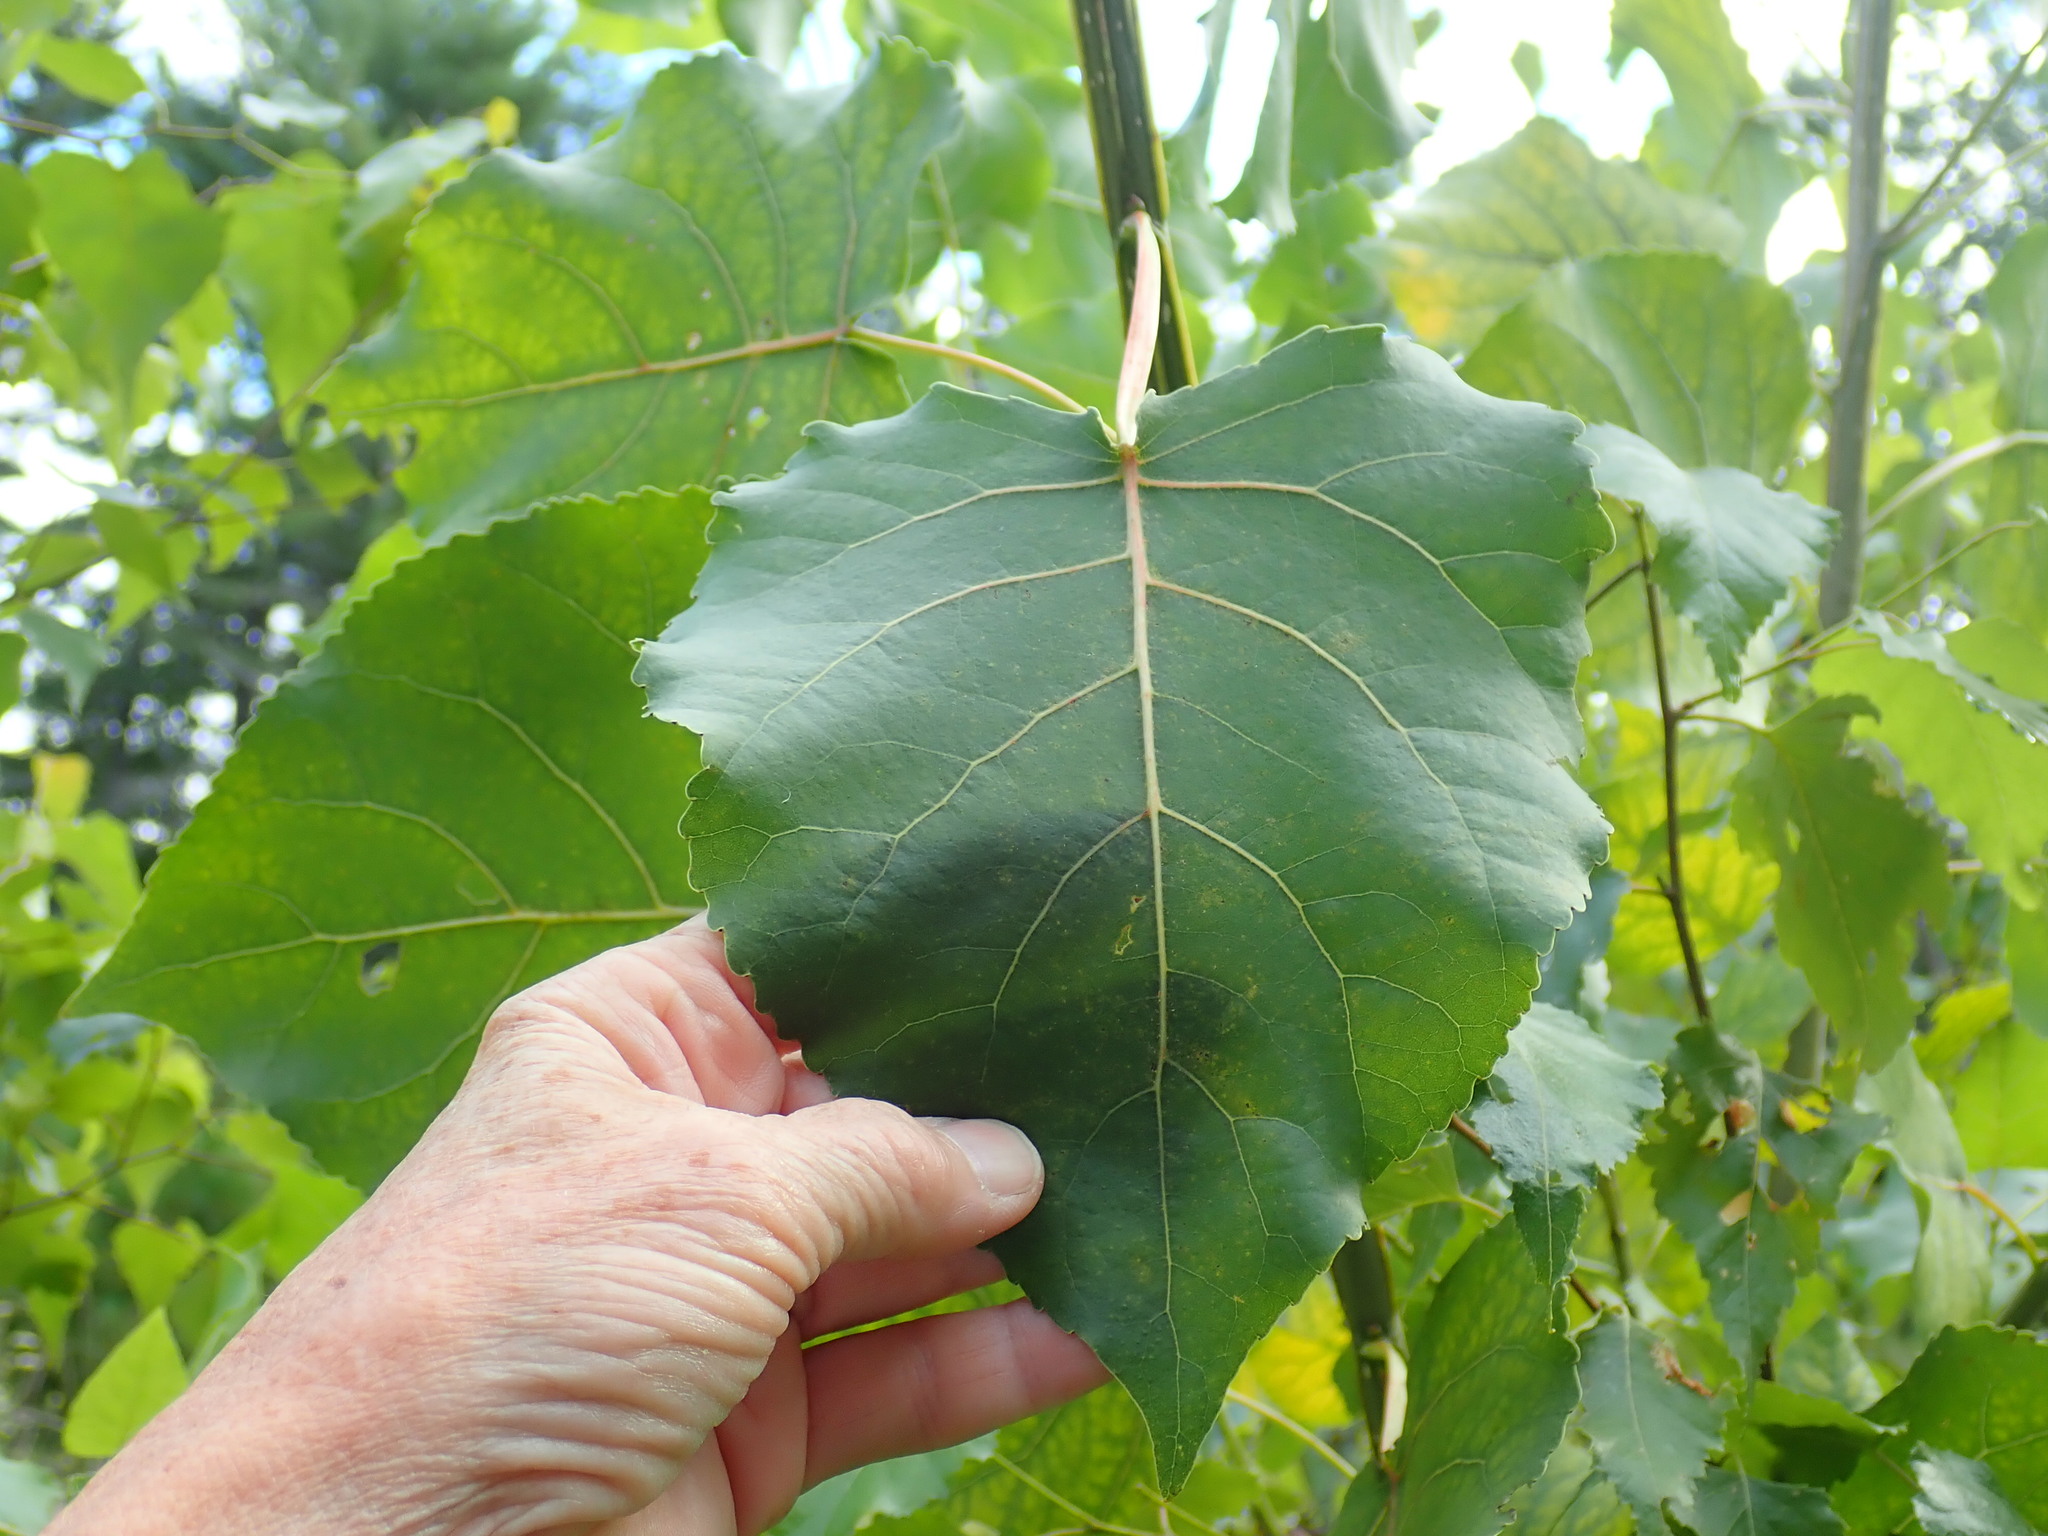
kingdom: Plantae
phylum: Tracheophyta
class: Magnoliopsida
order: Malpighiales
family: Salicaceae
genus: Populus
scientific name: Populus deltoides
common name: Eastern cottonwood
